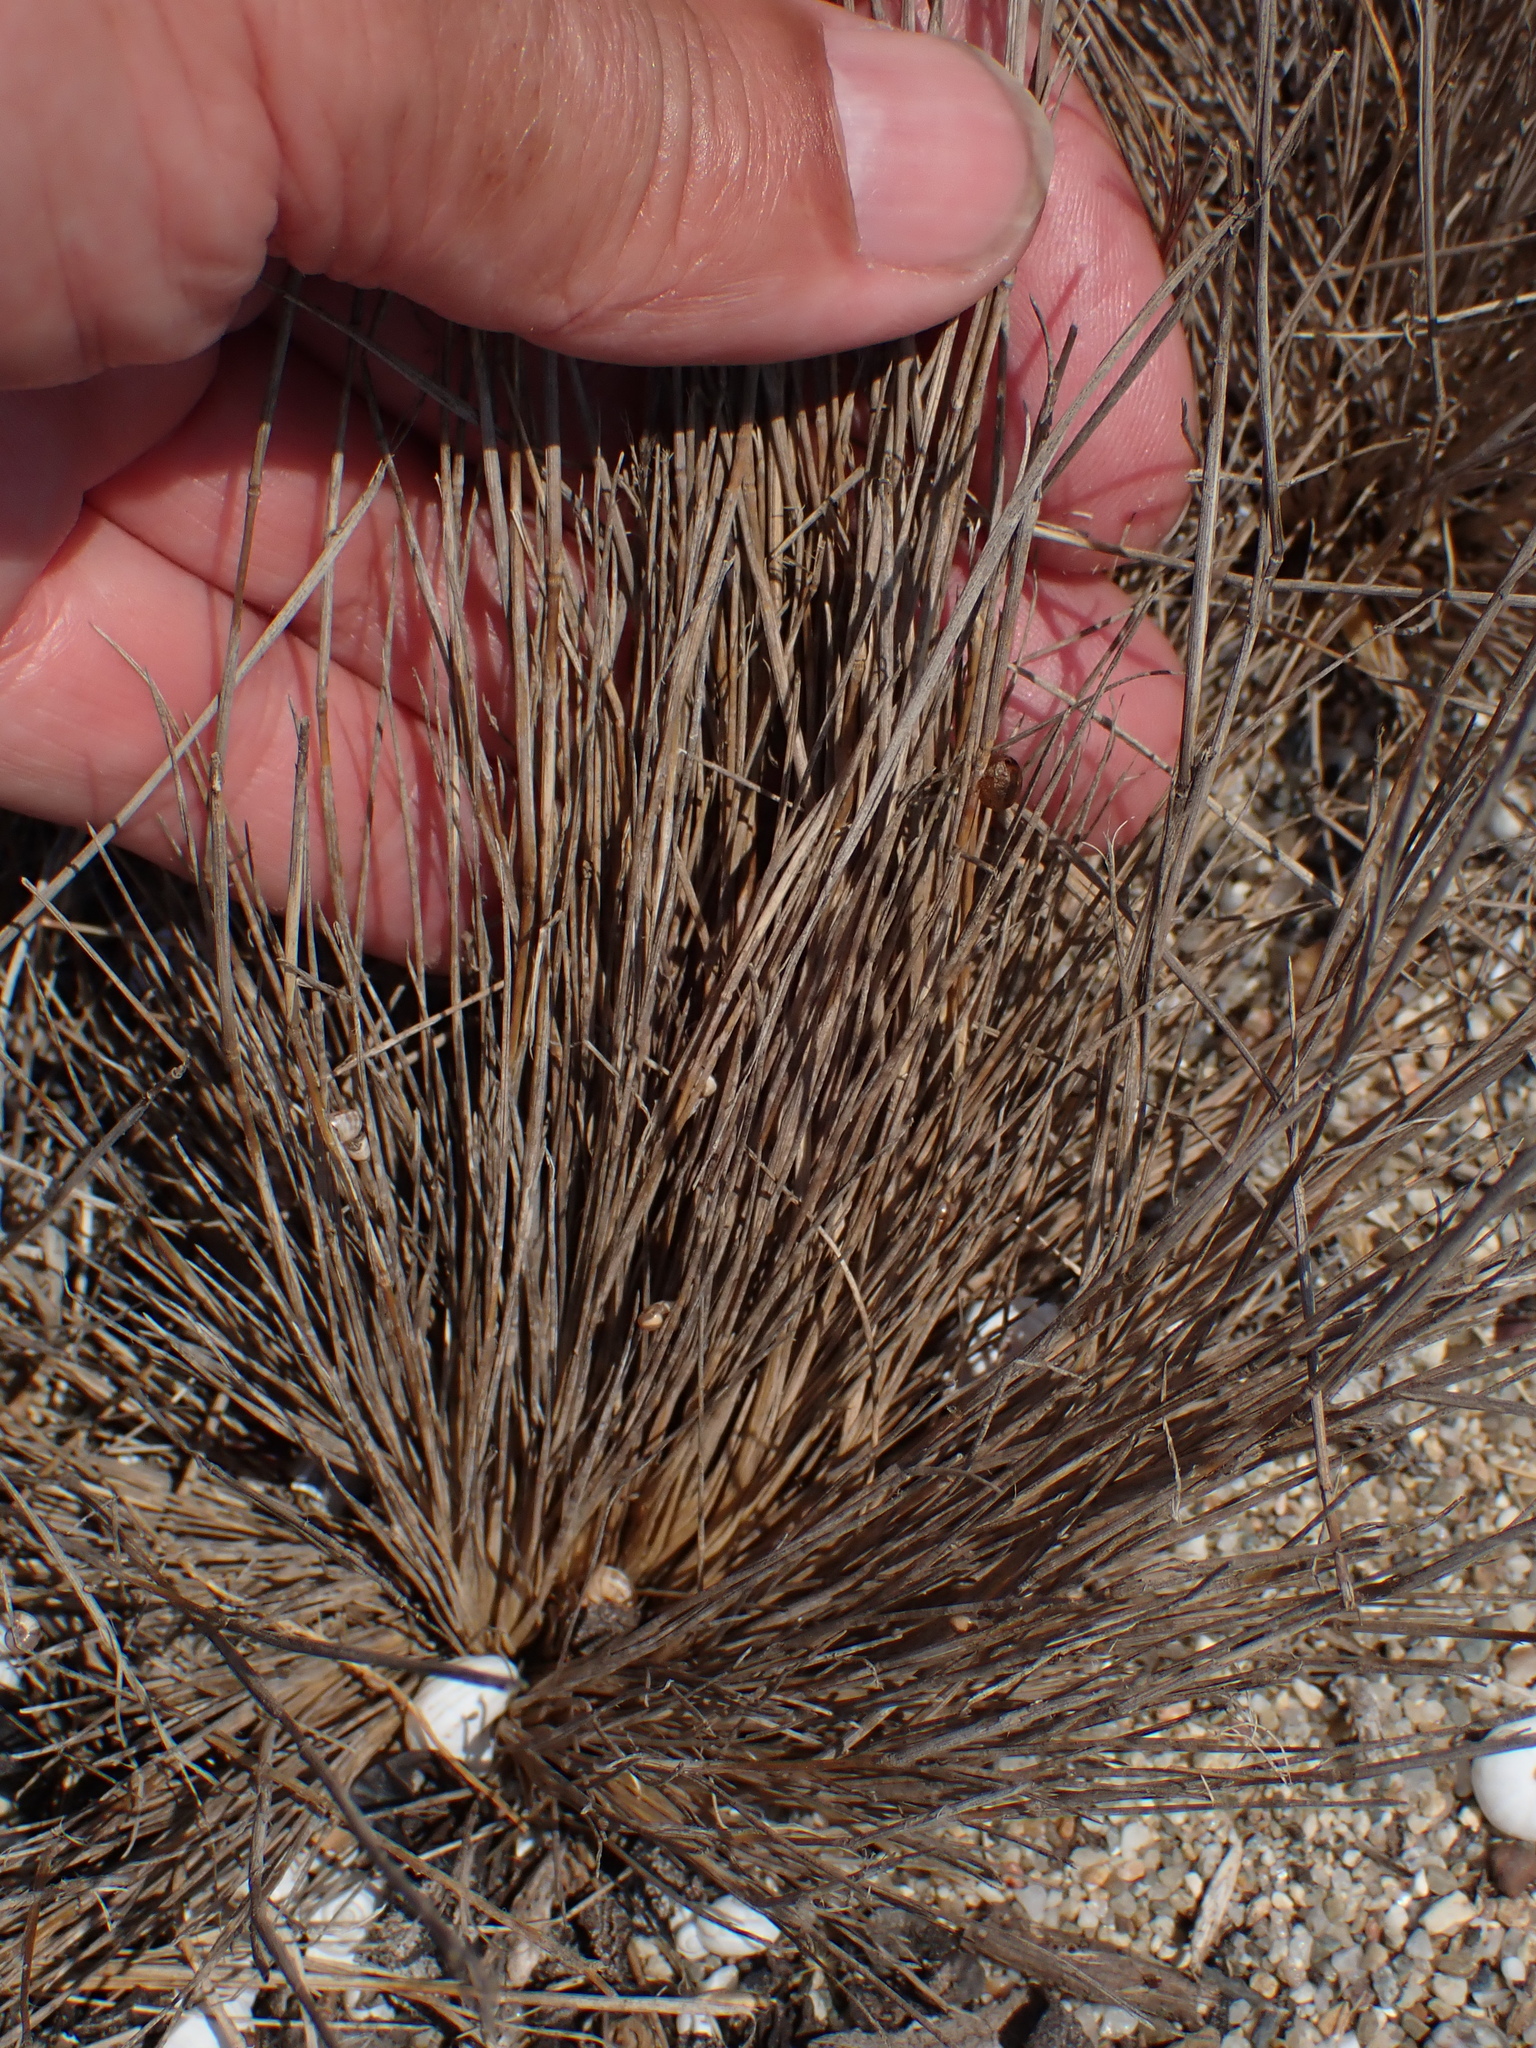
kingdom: Plantae
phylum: Tracheophyta
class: Liliopsida
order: Poales
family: Poaceae
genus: Corynephorus
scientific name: Corynephorus canescens
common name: Grey hair-grass
